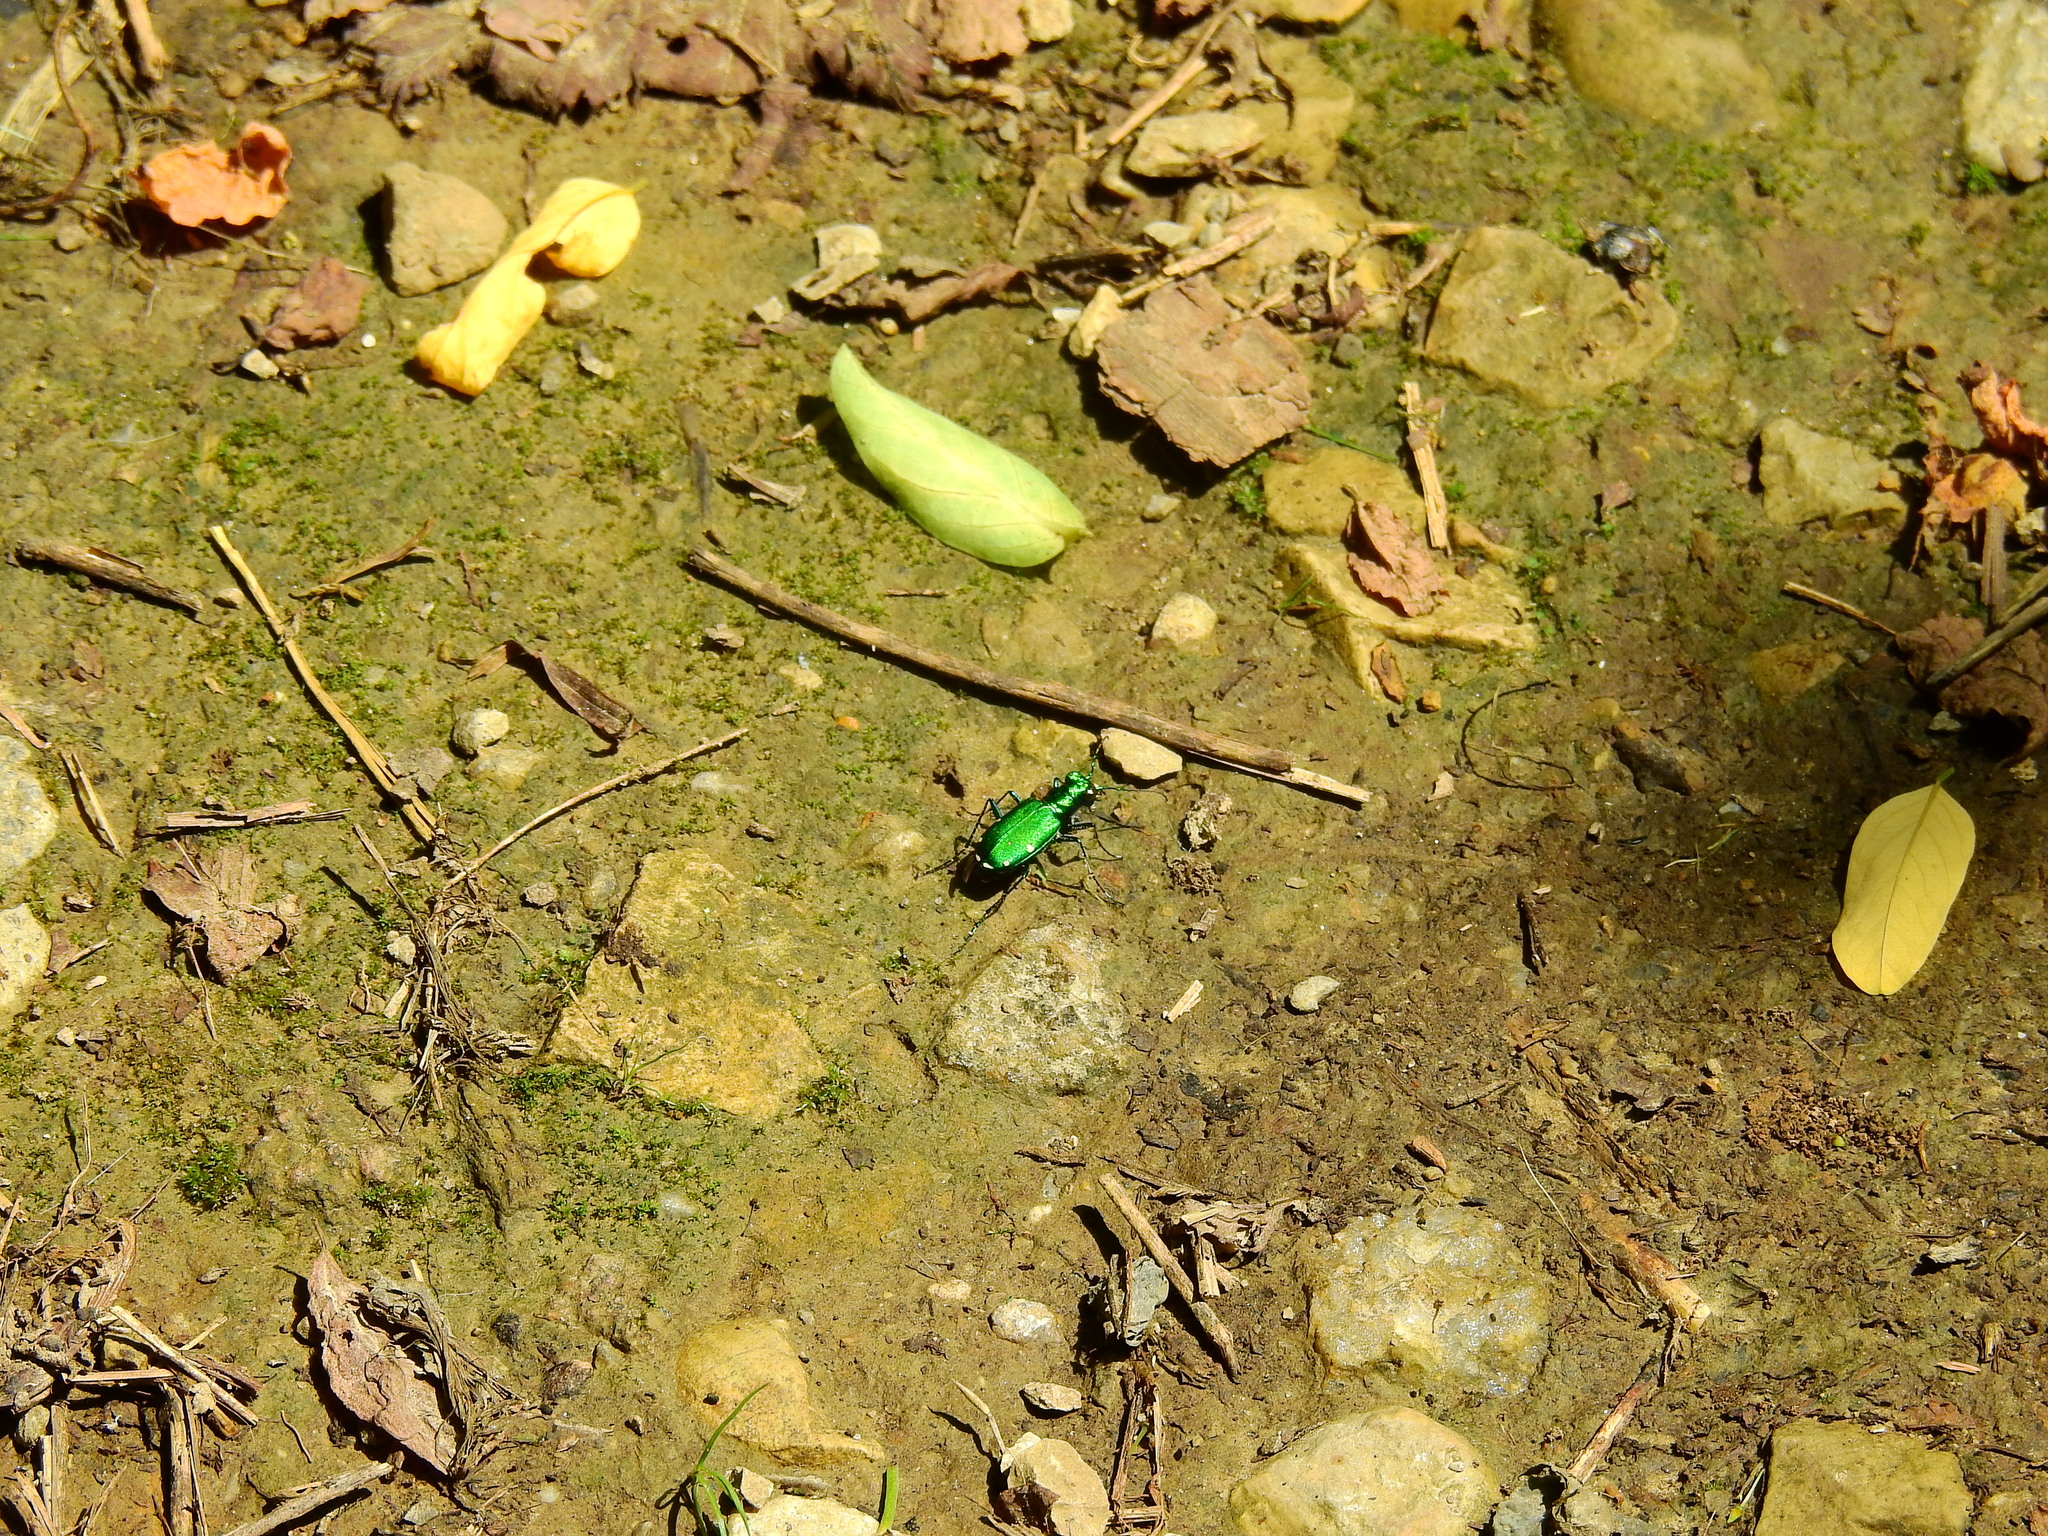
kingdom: Animalia
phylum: Arthropoda
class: Insecta
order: Coleoptera
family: Carabidae
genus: Cicindela
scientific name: Cicindela sexguttata
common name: Six-spotted tiger beetle
